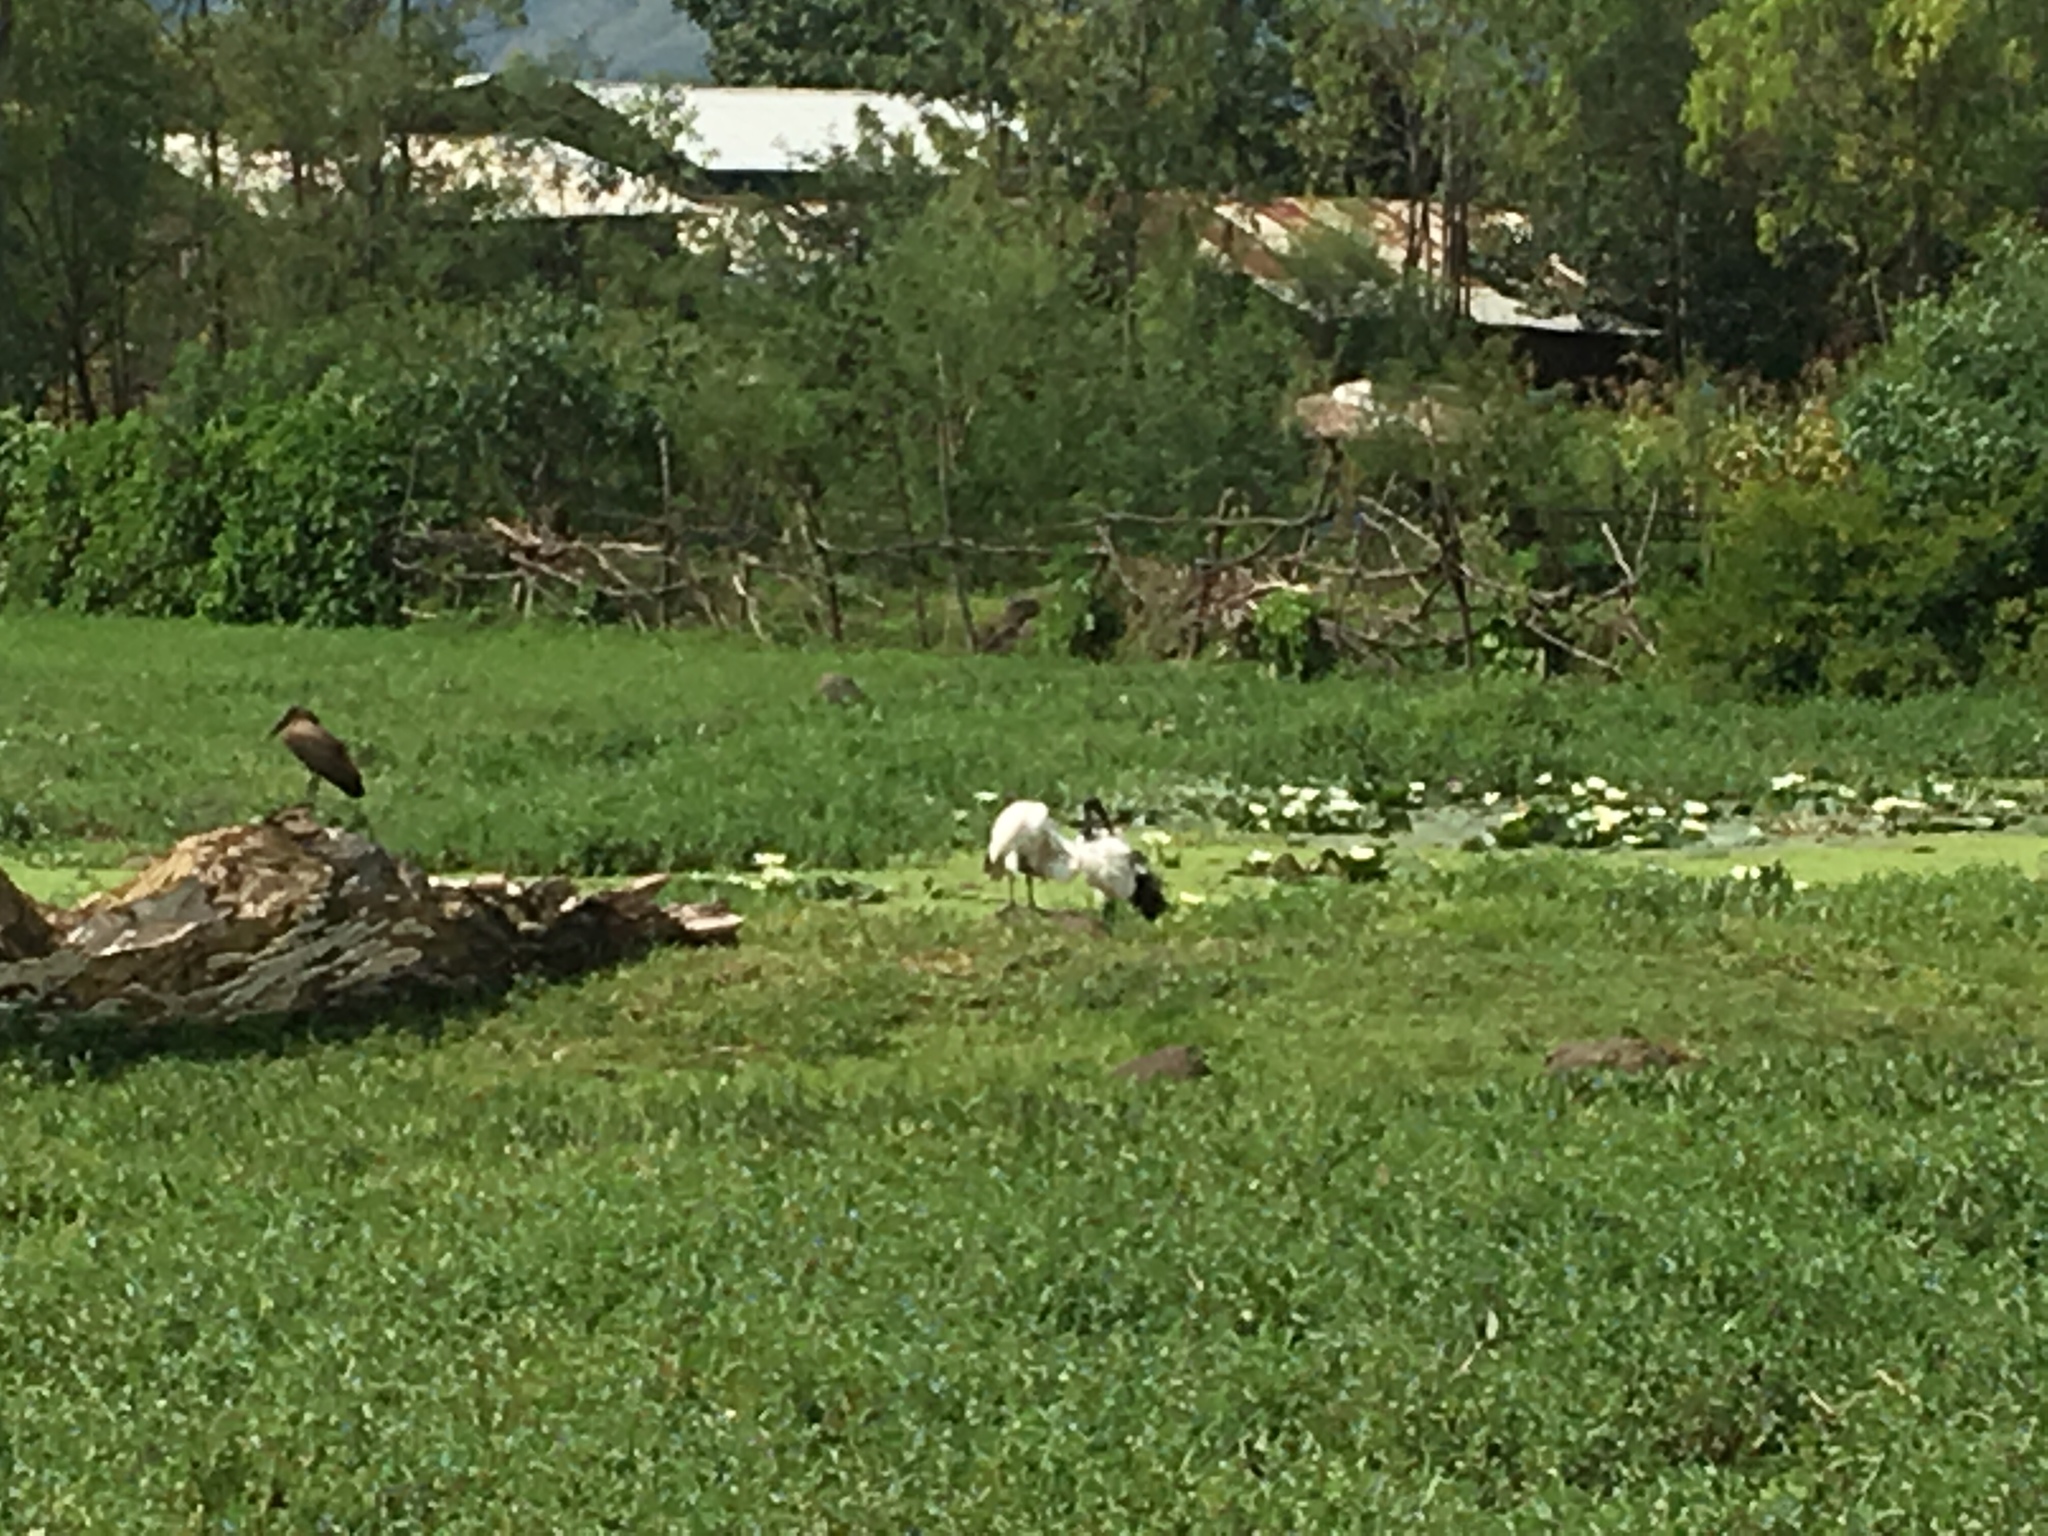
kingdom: Animalia
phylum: Chordata
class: Aves
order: Pelecaniformes
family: Threskiornithidae
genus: Threskiornis
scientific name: Threskiornis aethiopicus
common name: Sacred ibis
